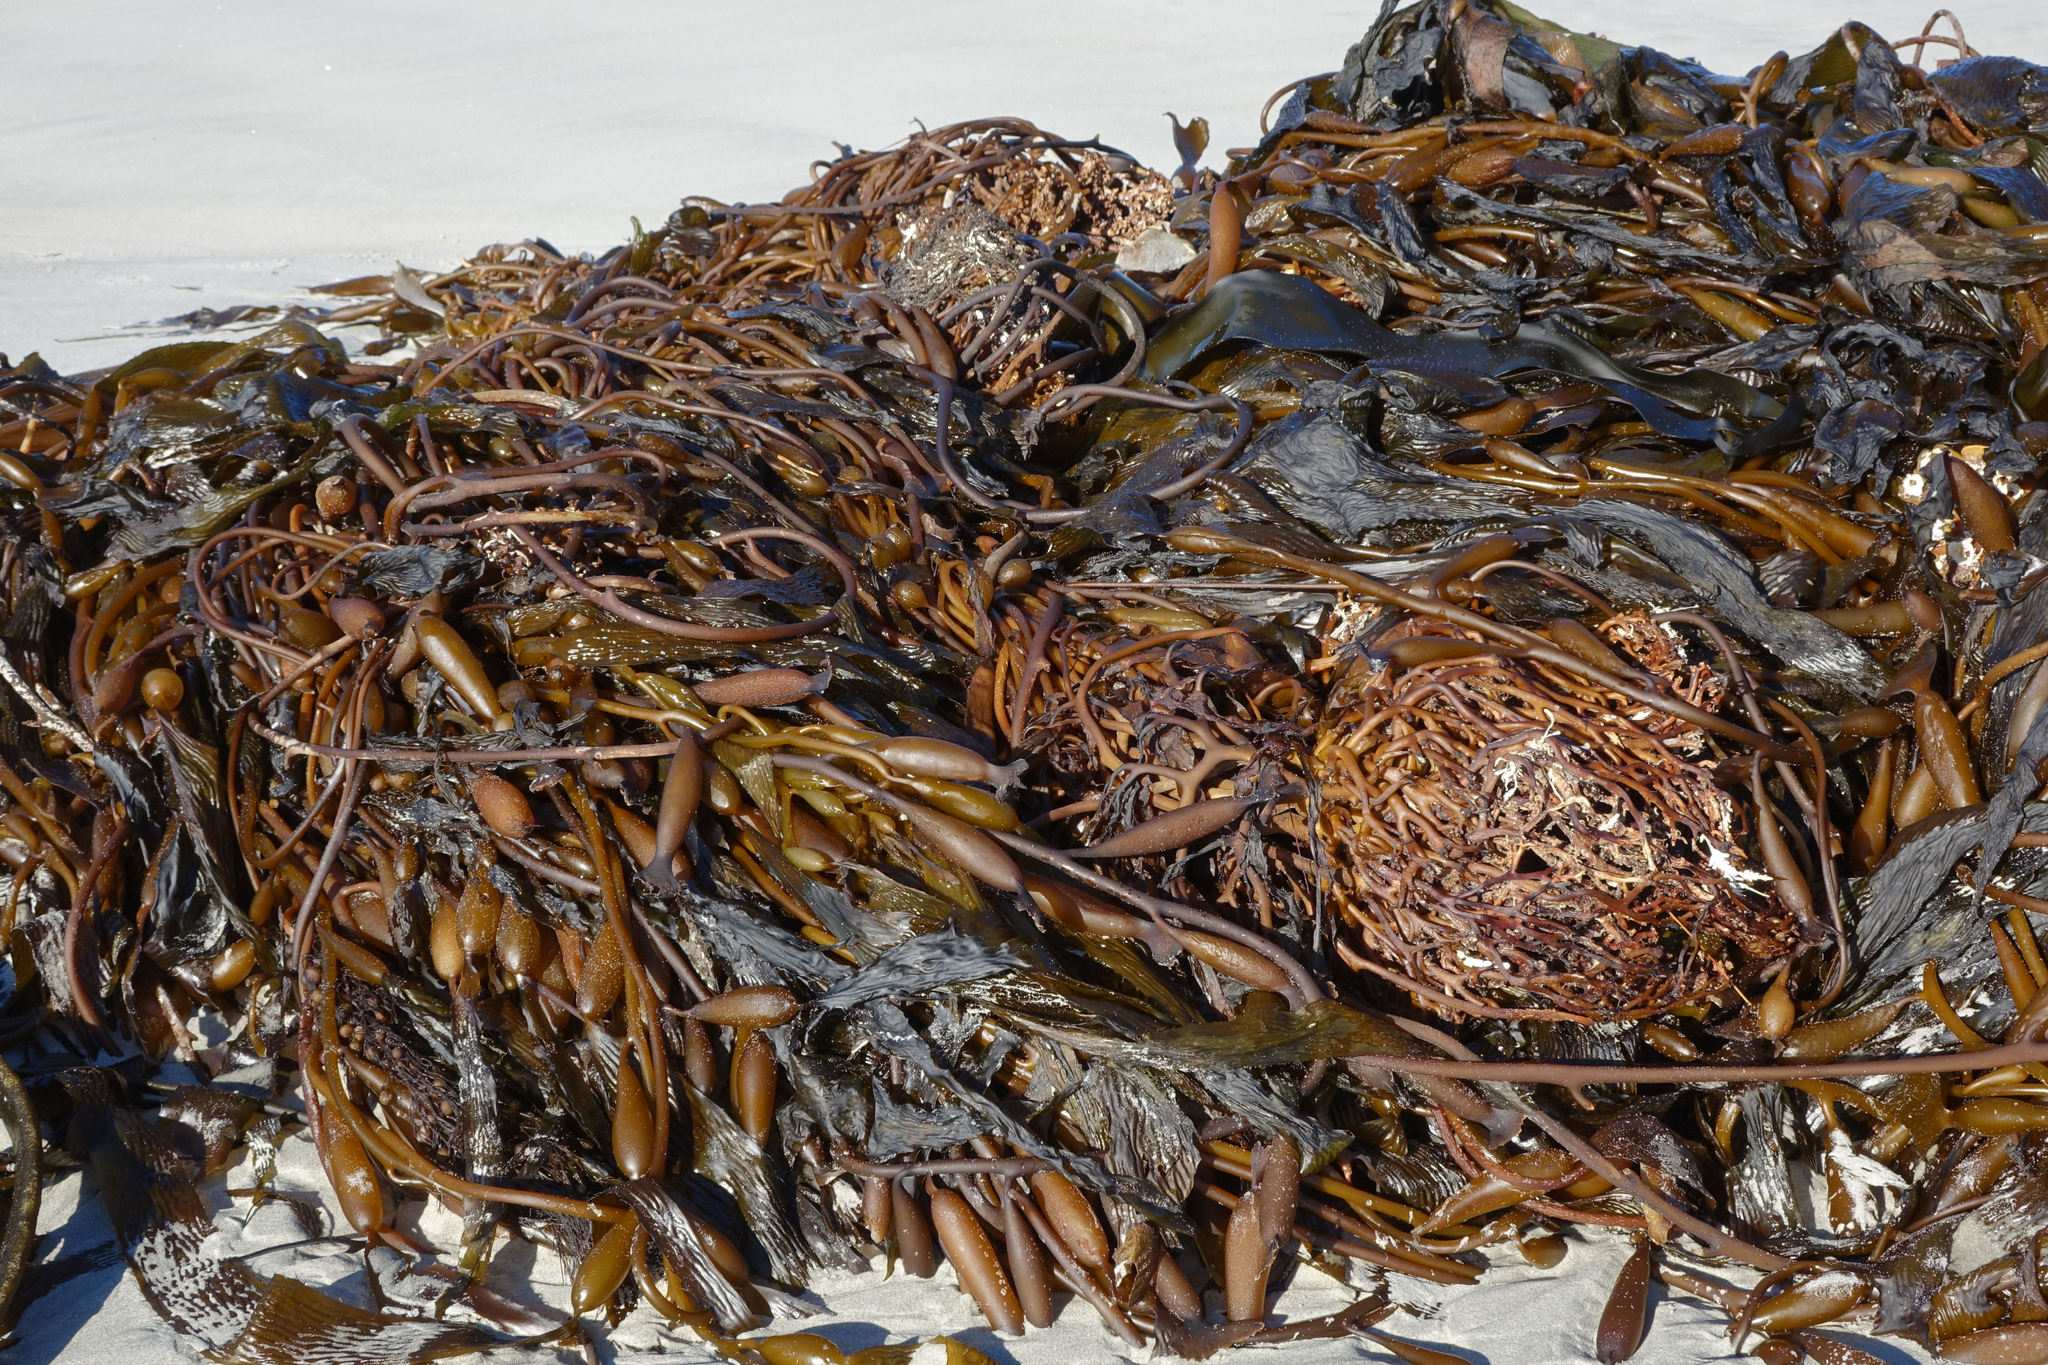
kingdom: Chromista
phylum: Ochrophyta
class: Phaeophyceae
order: Laminariales
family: Laminariaceae
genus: Macrocystis
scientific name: Macrocystis pyrifera
